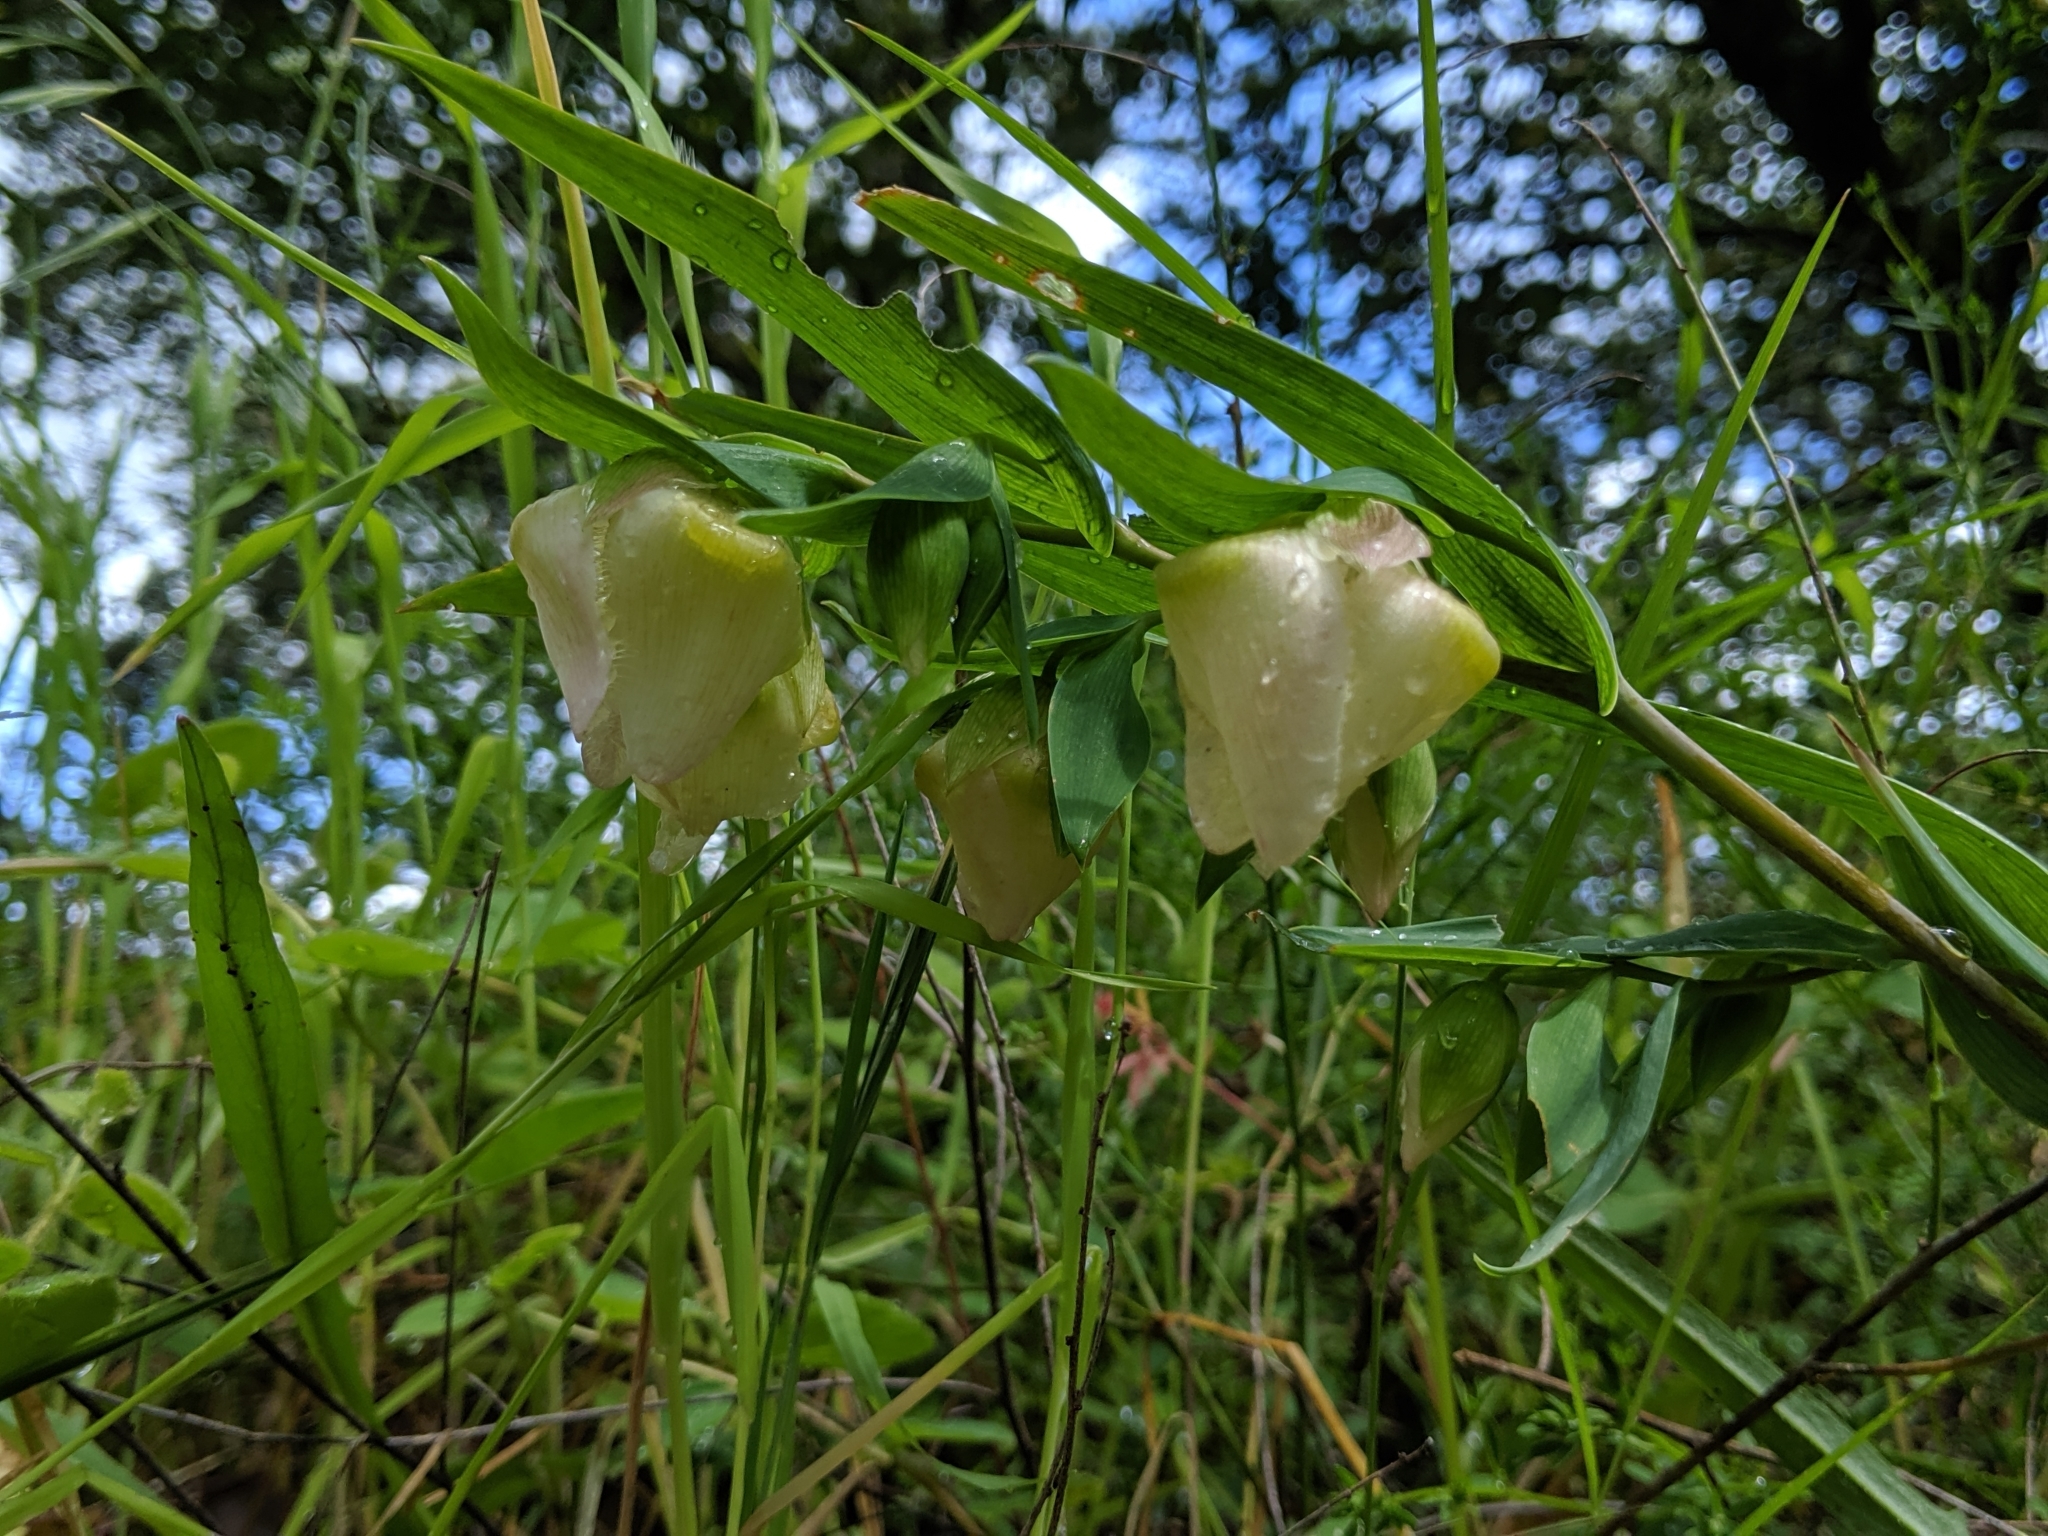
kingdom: Plantae
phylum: Tracheophyta
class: Liliopsida
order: Liliales
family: Liliaceae
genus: Calochortus
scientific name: Calochortus albus
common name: Fairy-lantern
